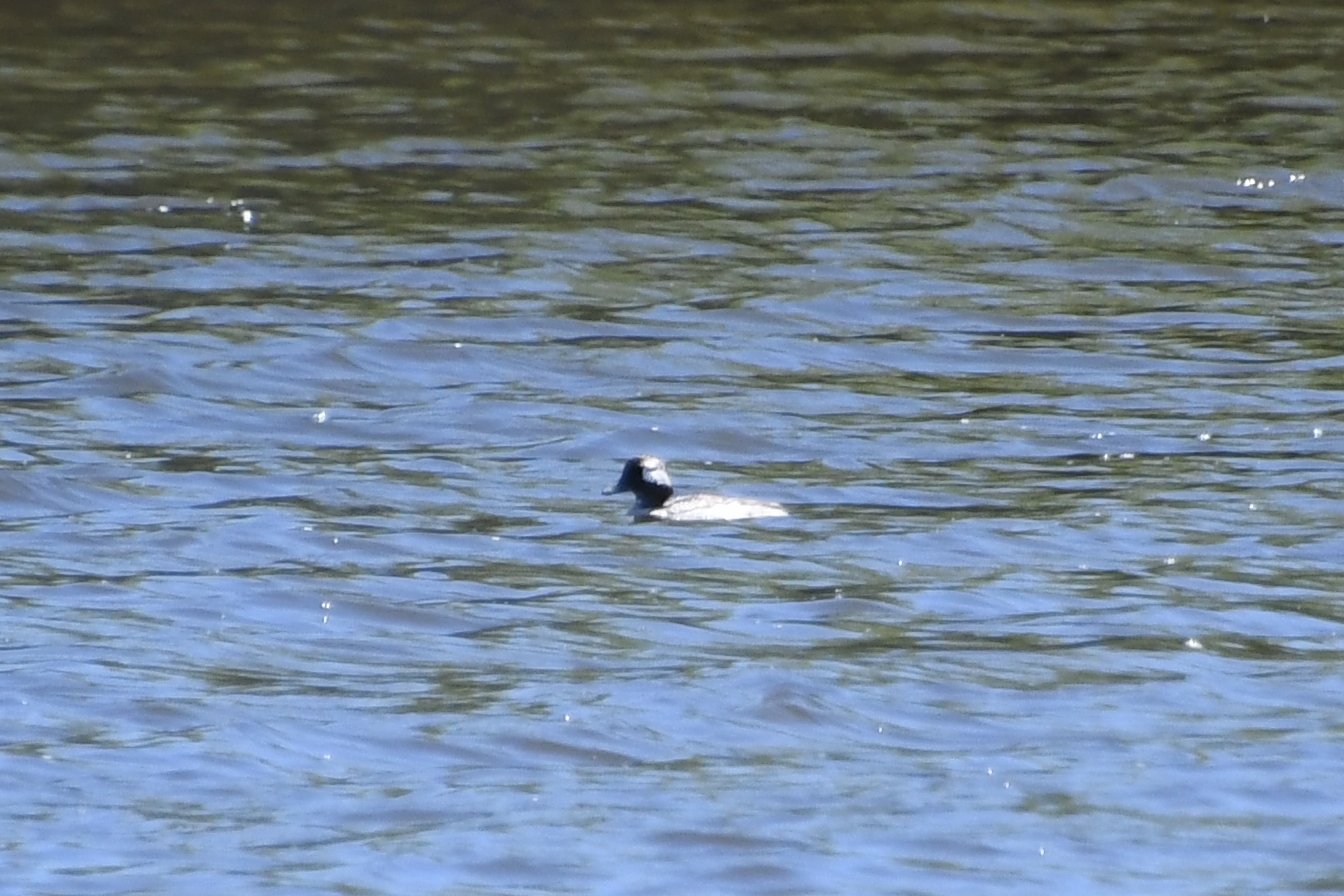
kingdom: Animalia
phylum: Chordata
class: Aves
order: Anseriformes
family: Anatidae
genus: Bucephala
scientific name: Bucephala albeola
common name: Bufflehead
